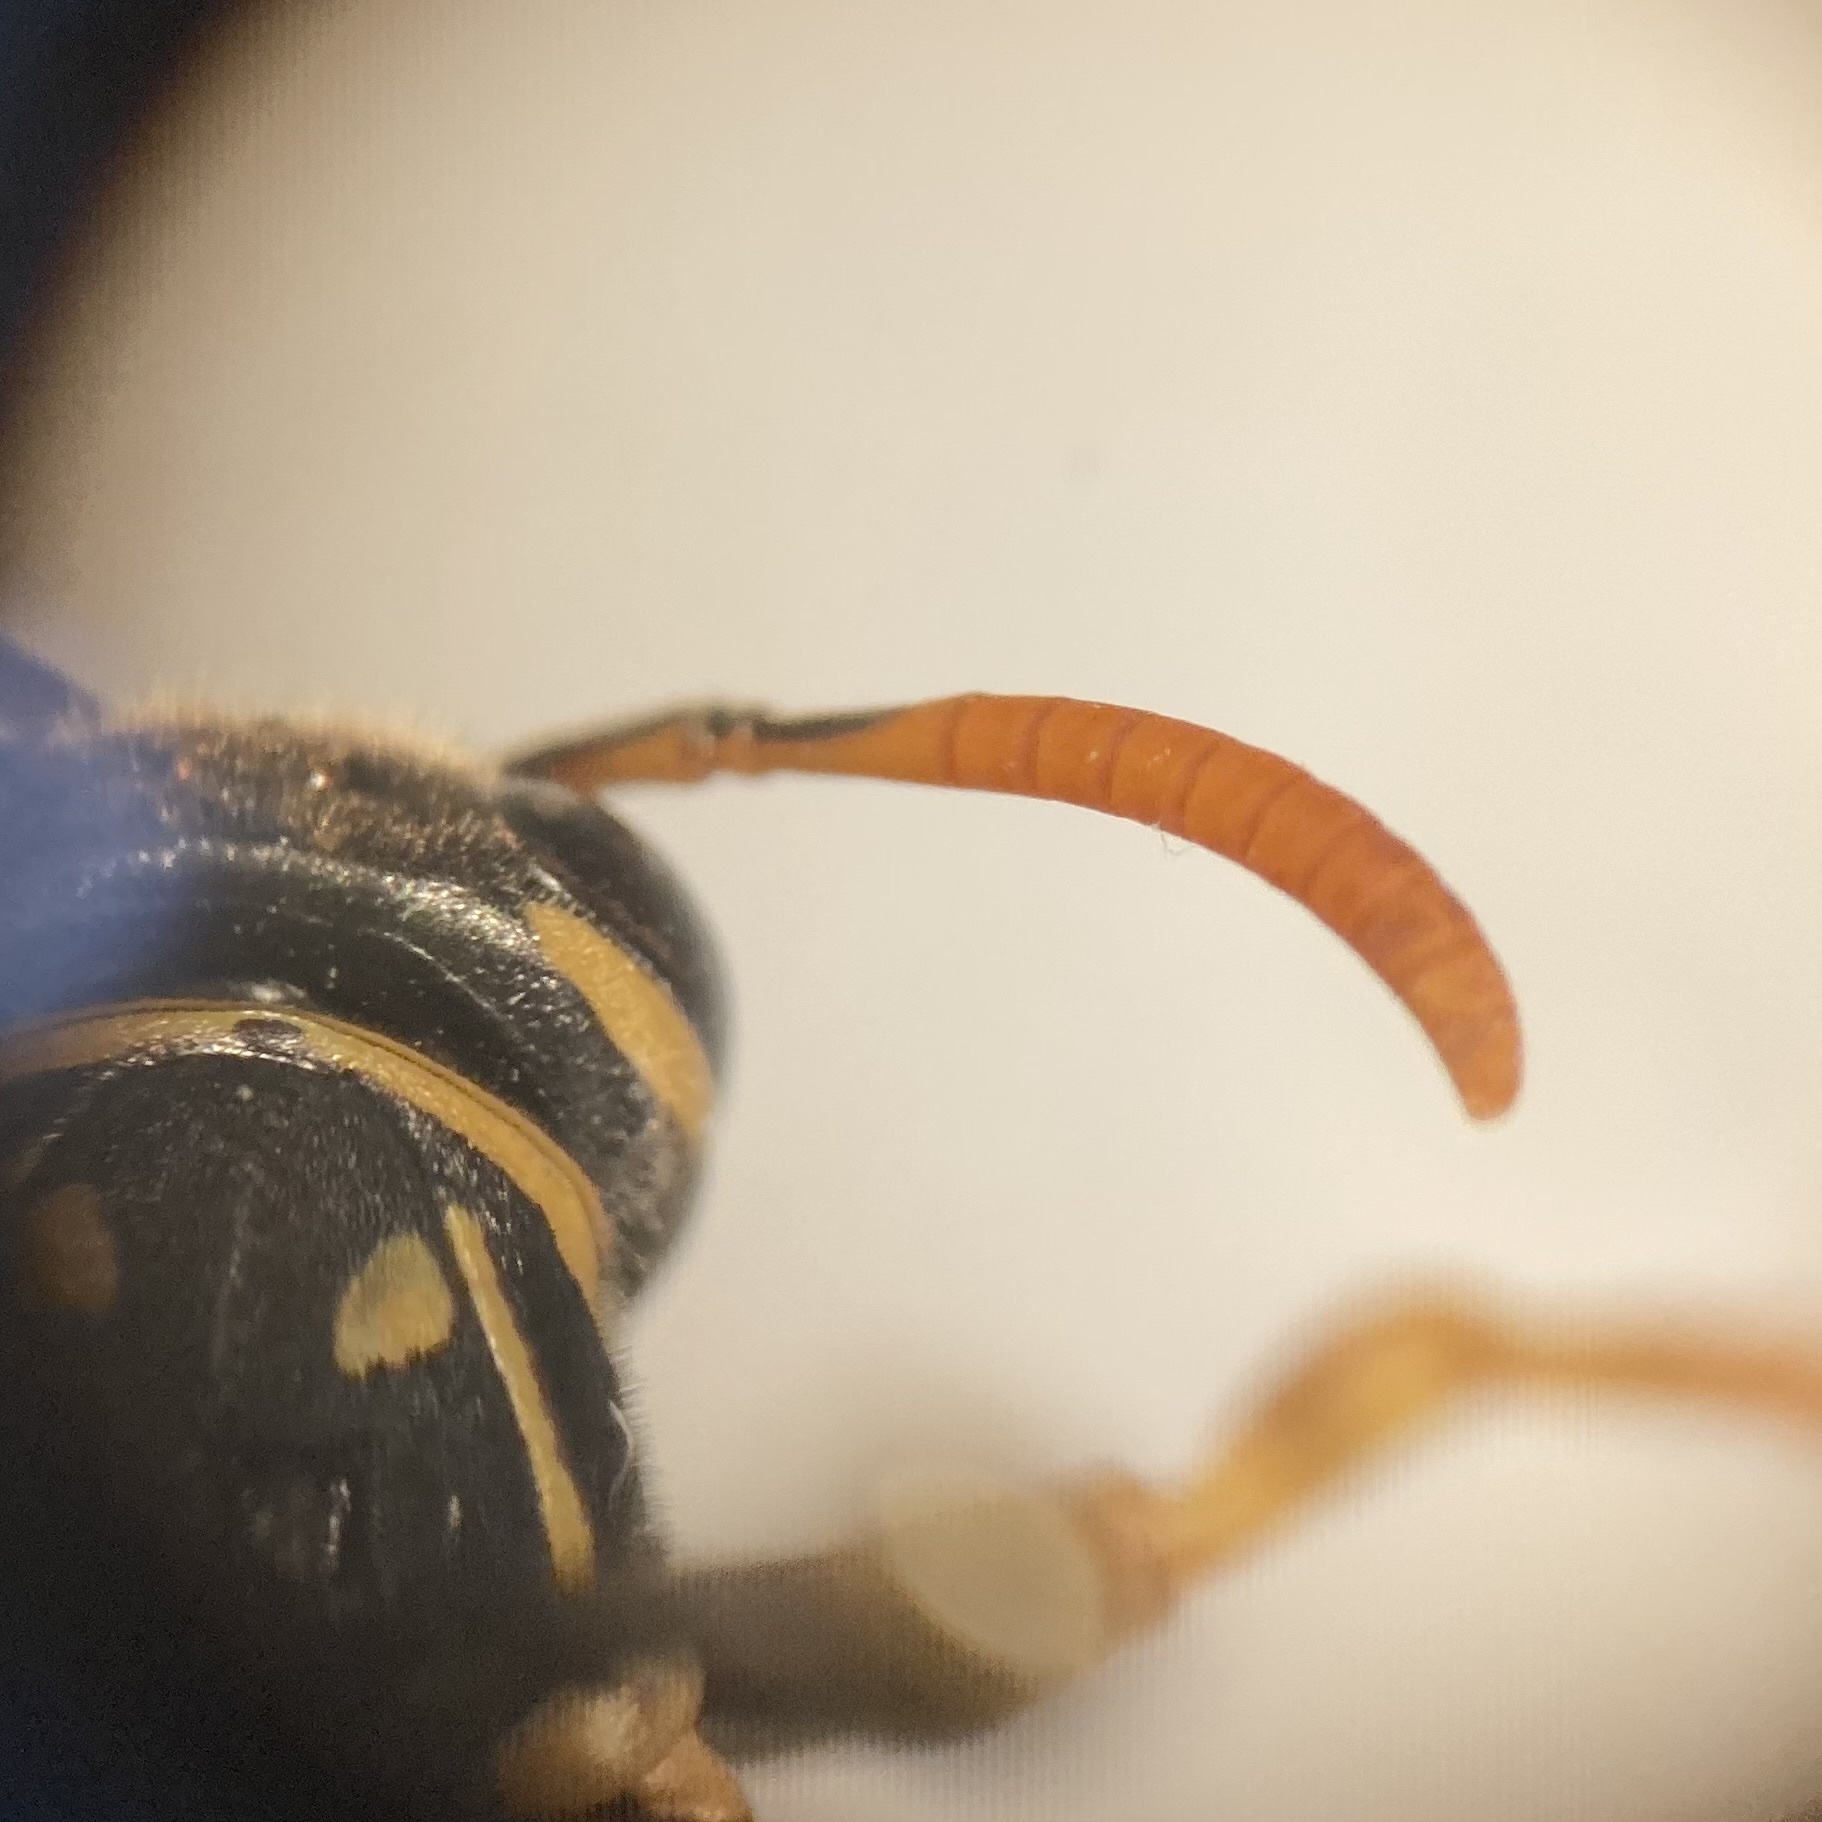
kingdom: Animalia
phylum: Arthropoda
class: Insecta
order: Hymenoptera
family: Eumenidae
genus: Polistes
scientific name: Polistes dominula
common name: Paper wasp
